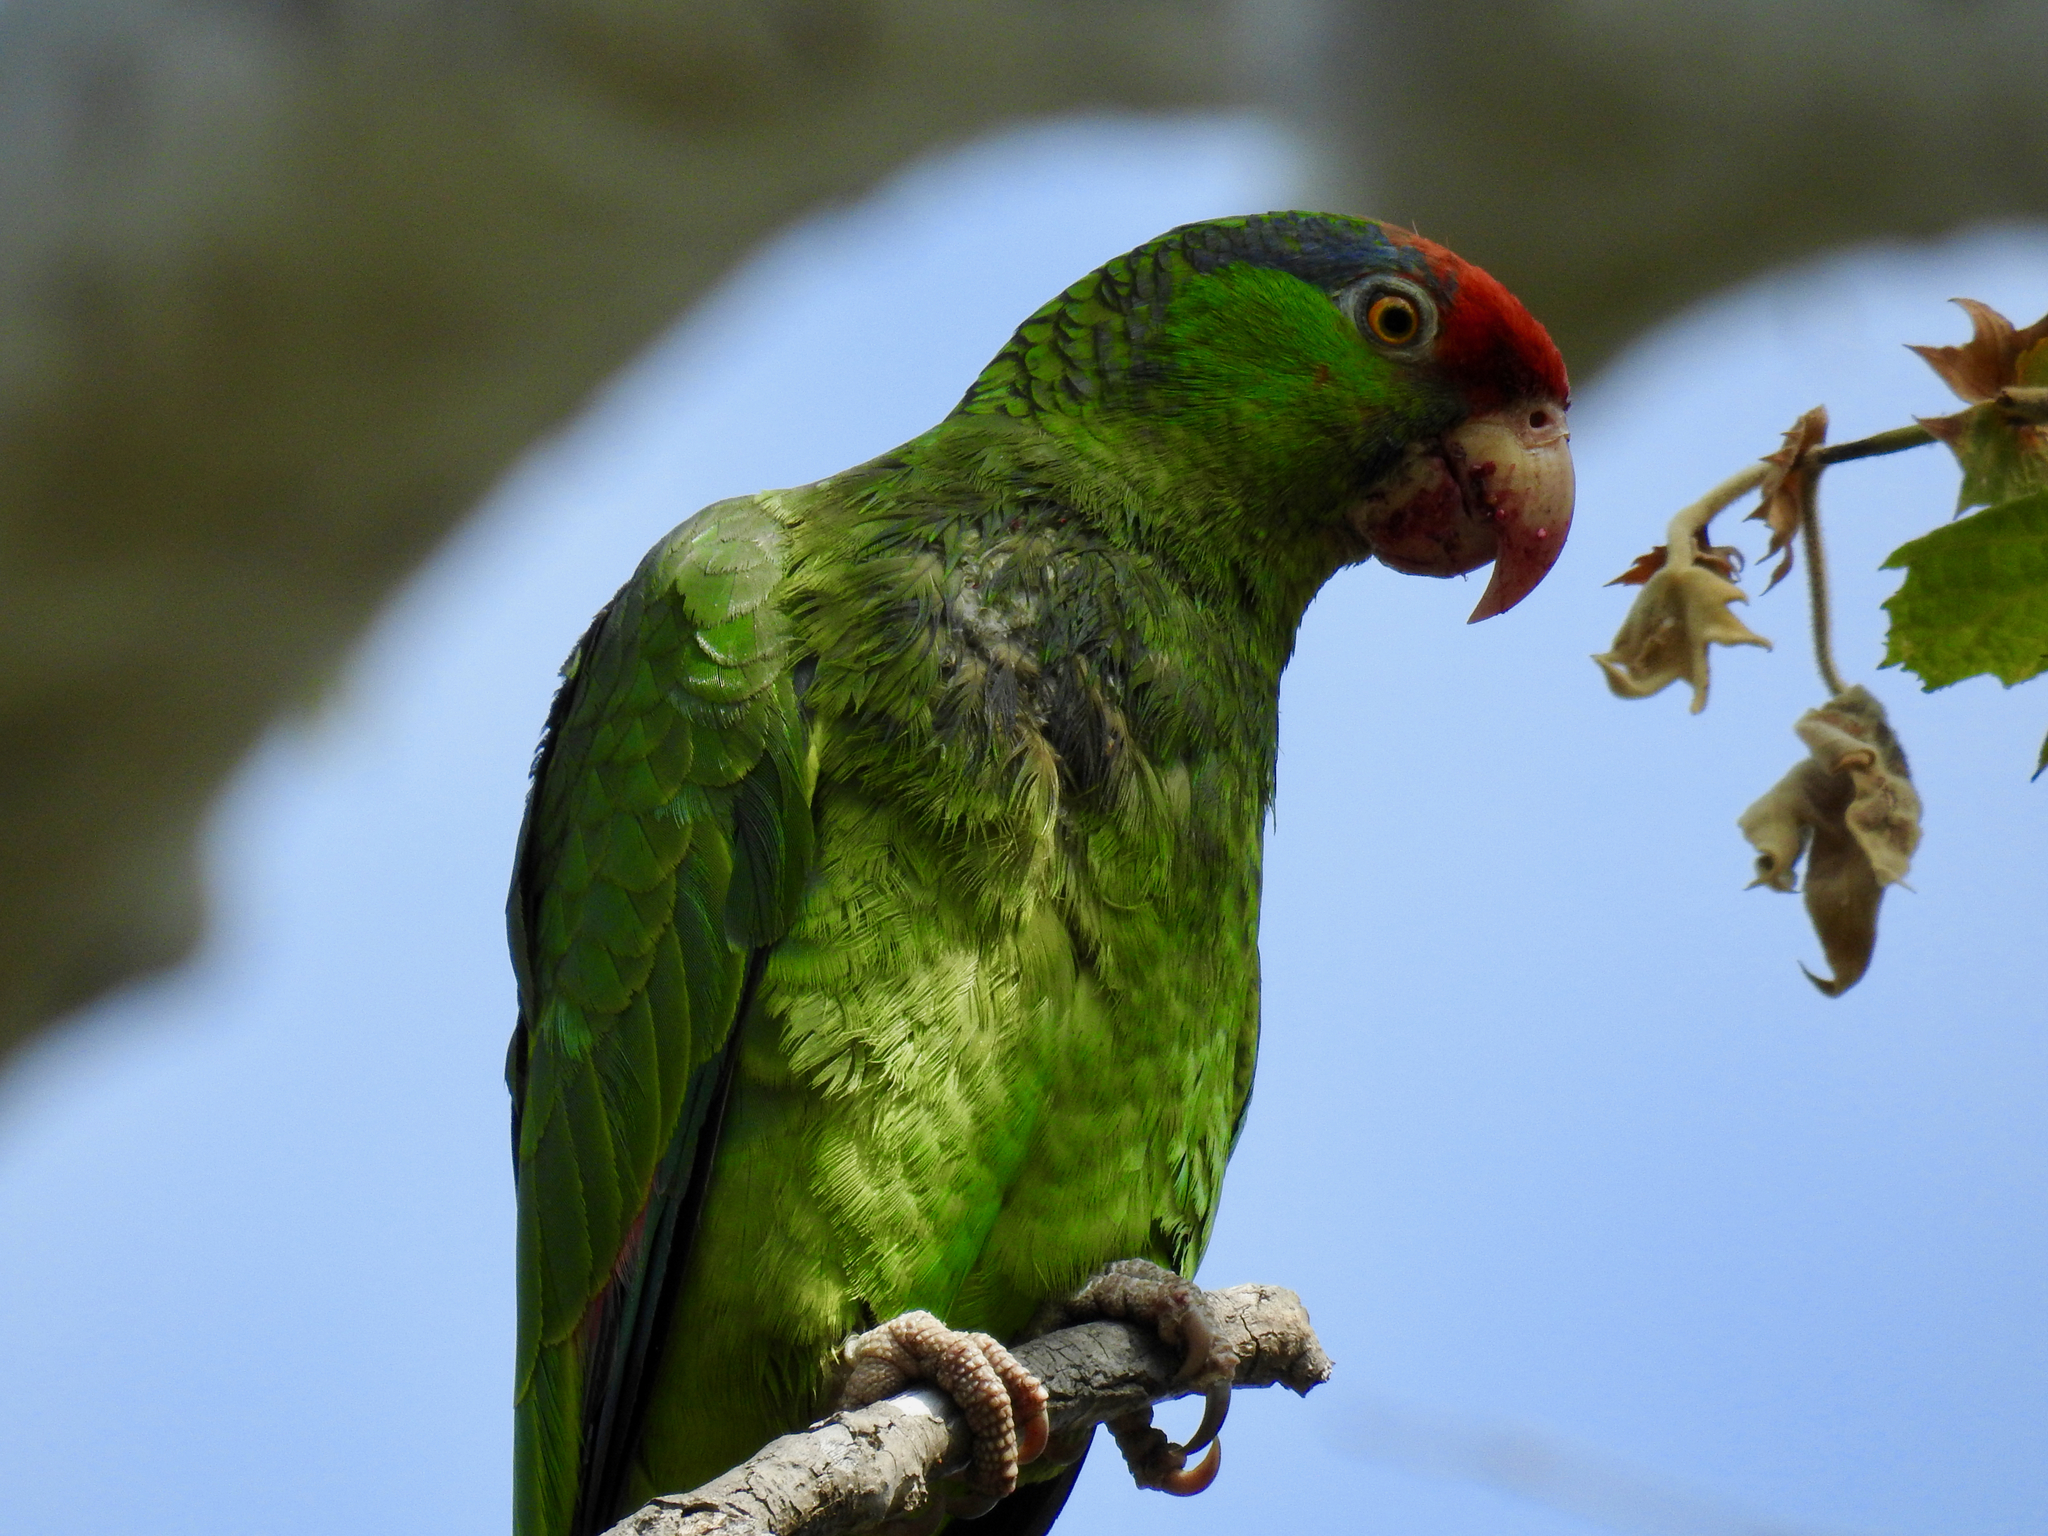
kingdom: Animalia
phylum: Chordata
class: Aves
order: Psittaciformes
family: Psittacidae
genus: Amazona
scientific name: Amazona viridigenalis
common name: Red-crowned amazon
